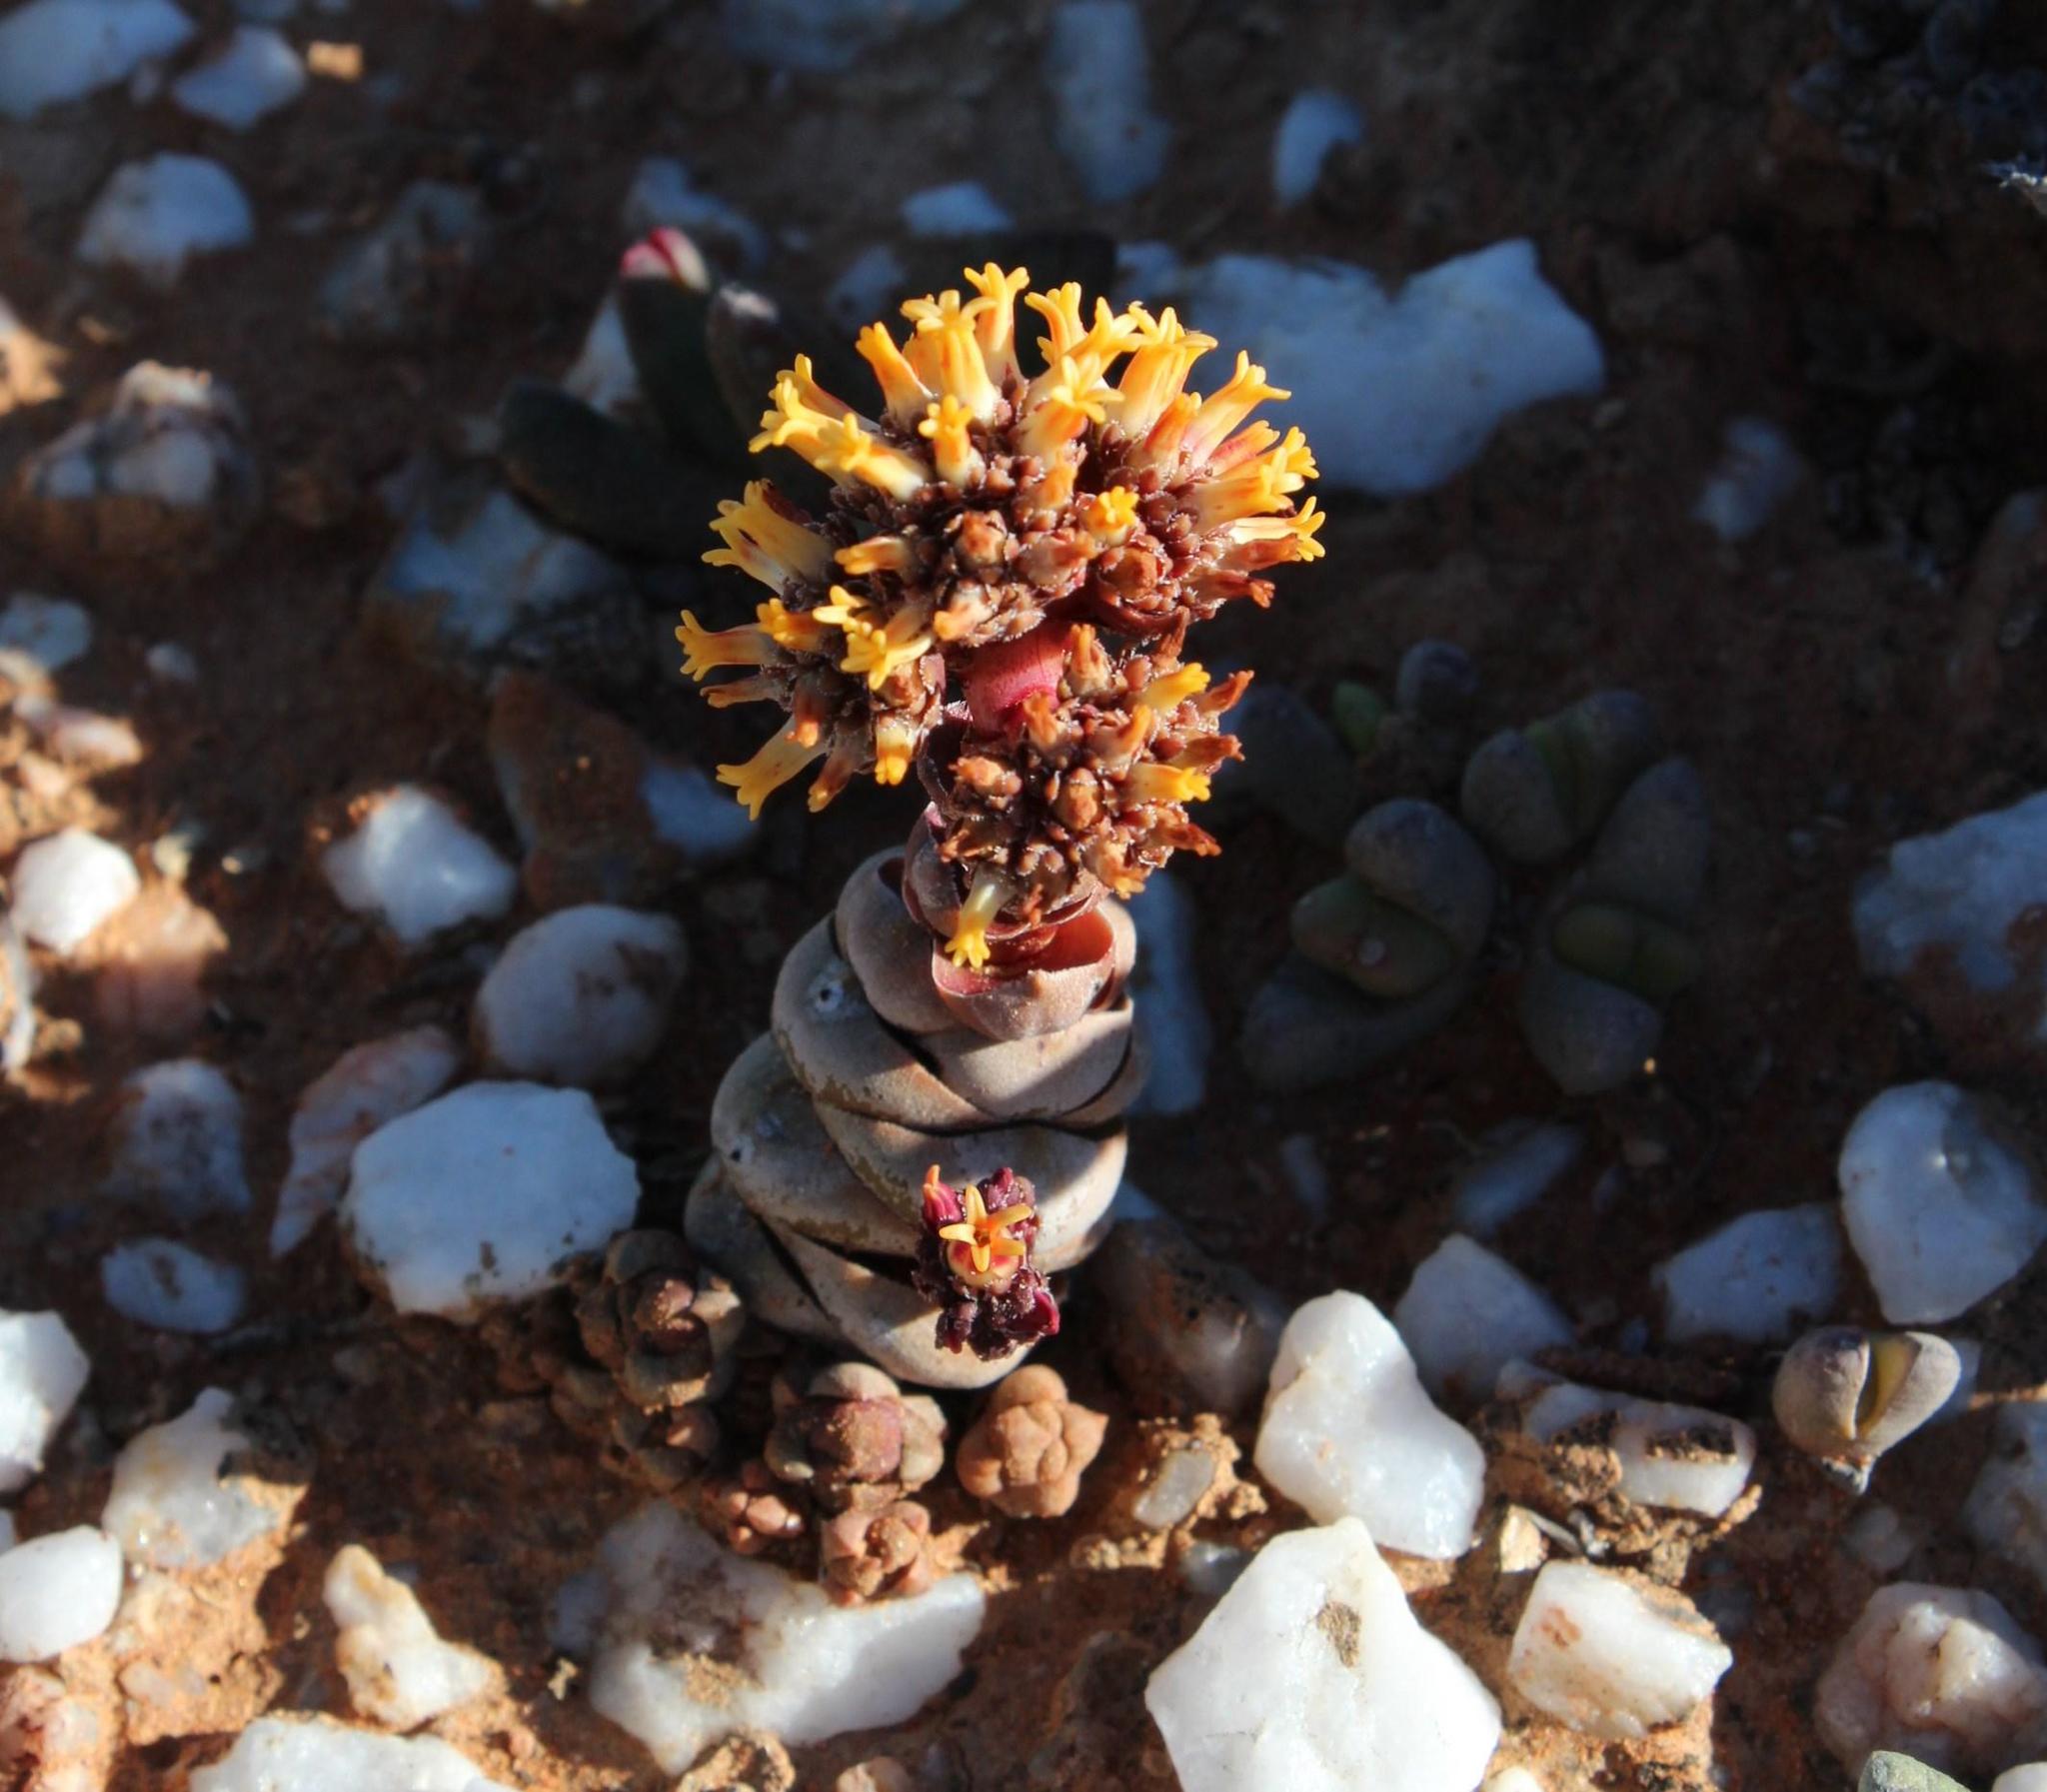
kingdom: Plantae
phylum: Tracheophyta
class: Magnoliopsida
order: Saxifragales
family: Crassulaceae
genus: Crassula
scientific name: Crassula columnaris
